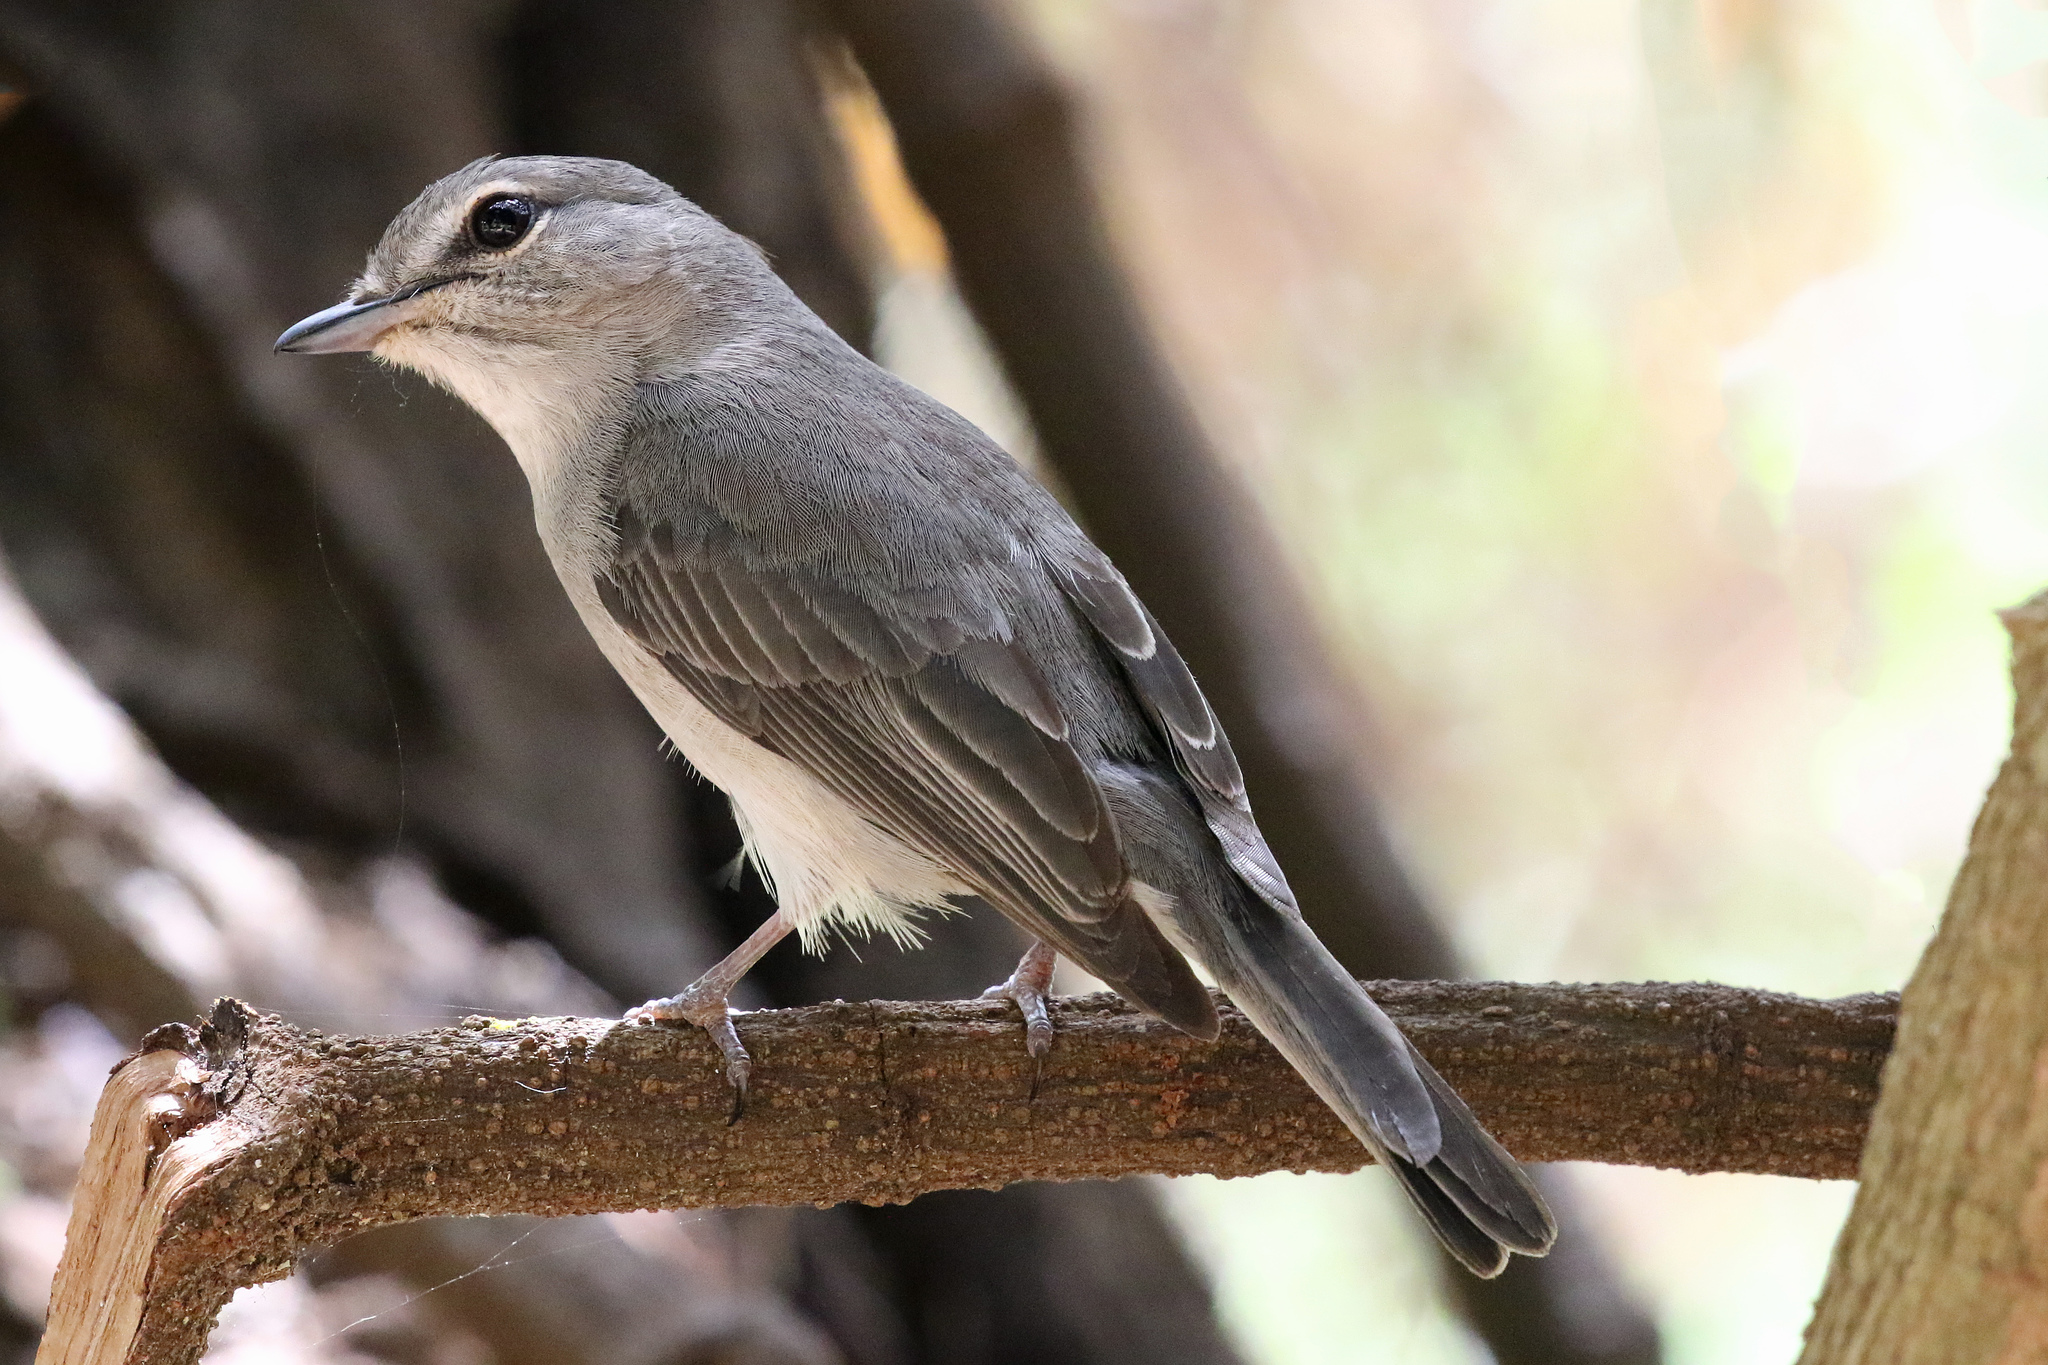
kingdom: Animalia
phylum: Chordata
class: Aves
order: Passeriformes
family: Muscicapidae
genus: Muscicapa
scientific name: Muscicapa caerulescens
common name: Ashy flycatcher
